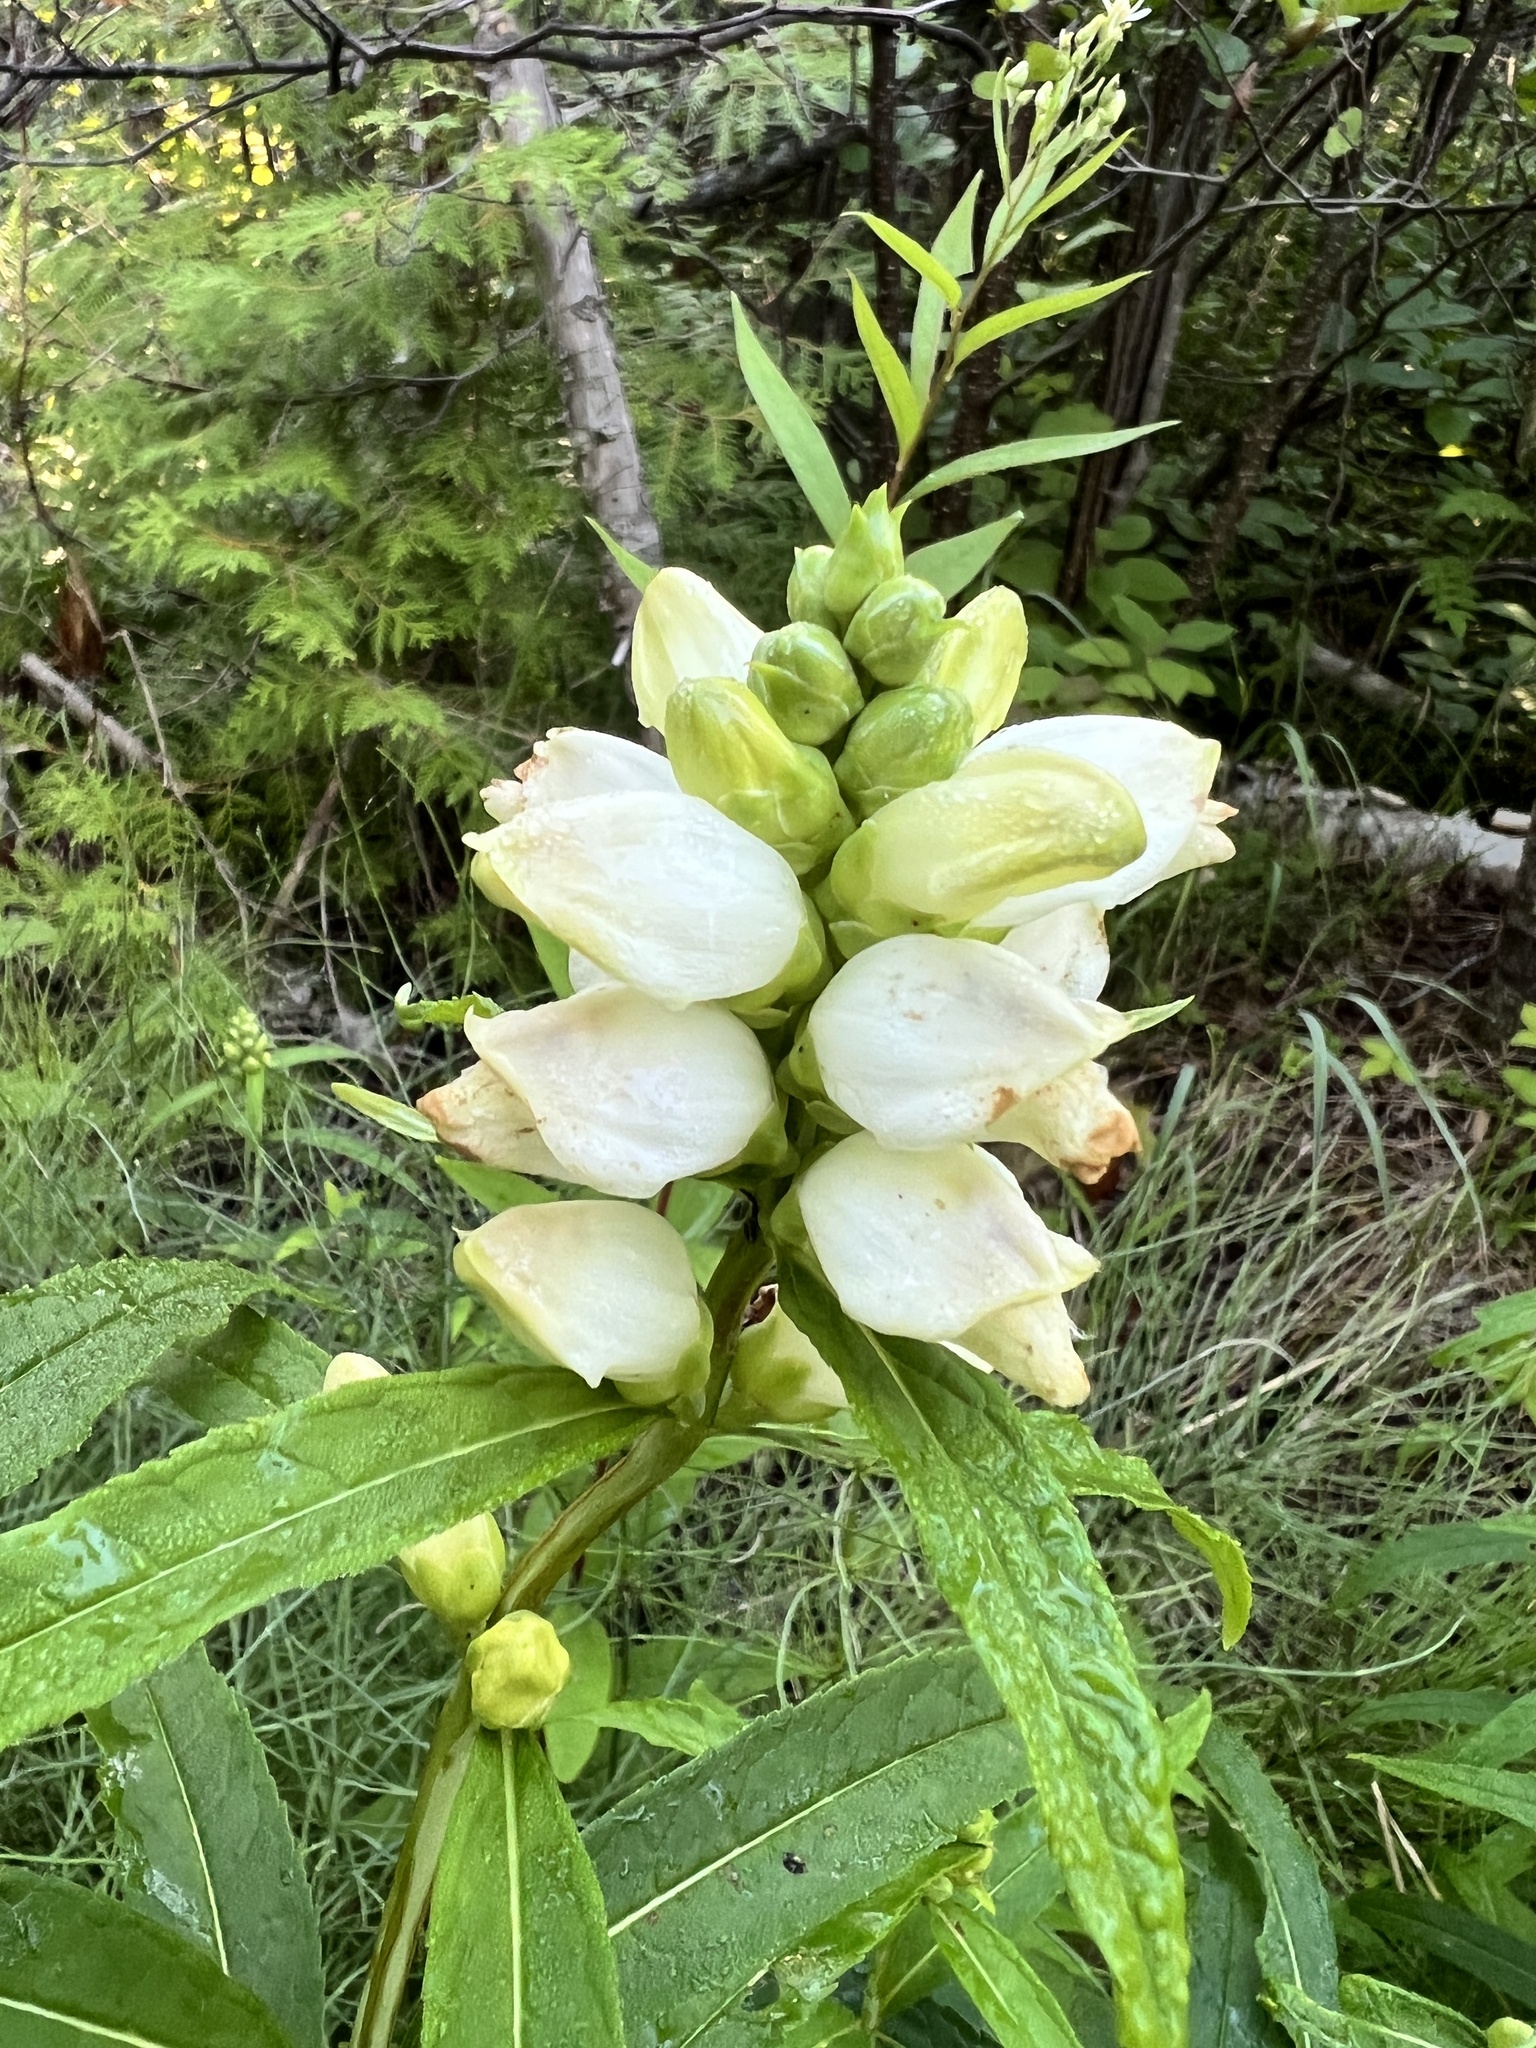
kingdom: Plantae
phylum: Tracheophyta
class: Magnoliopsida
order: Lamiales
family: Plantaginaceae
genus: Chelone
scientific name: Chelone glabra
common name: Snakehead
